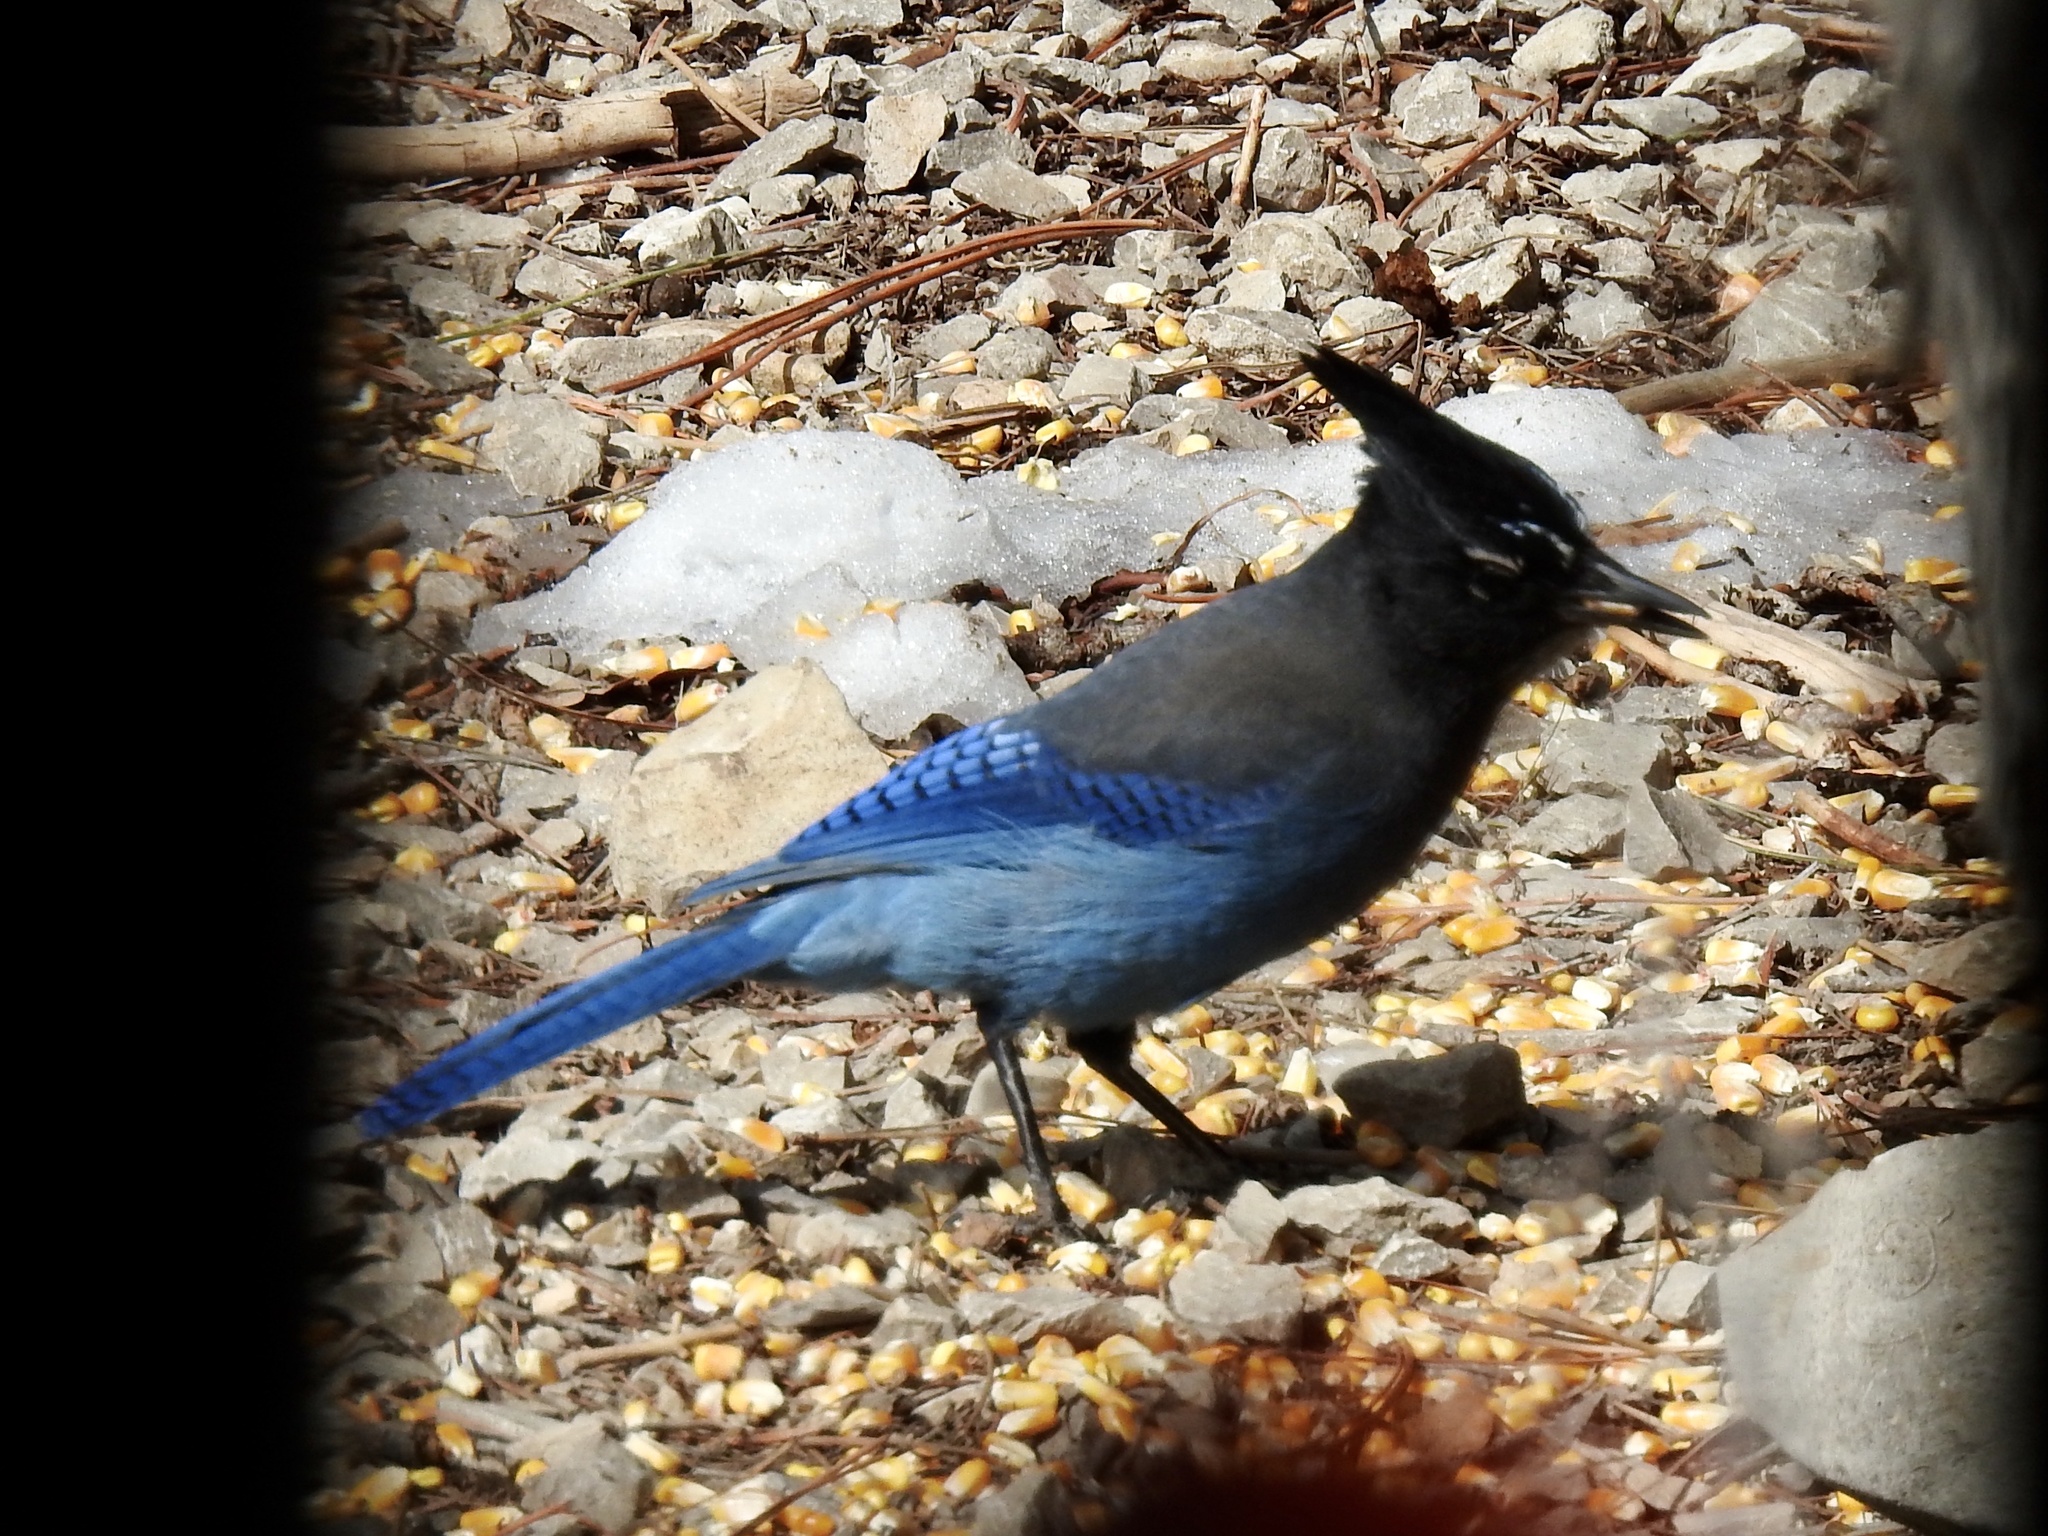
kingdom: Animalia
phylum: Chordata
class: Aves
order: Passeriformes
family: Corvidae
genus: Cyanocitta
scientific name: Cyanocitta stelleri
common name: Steller's jay
